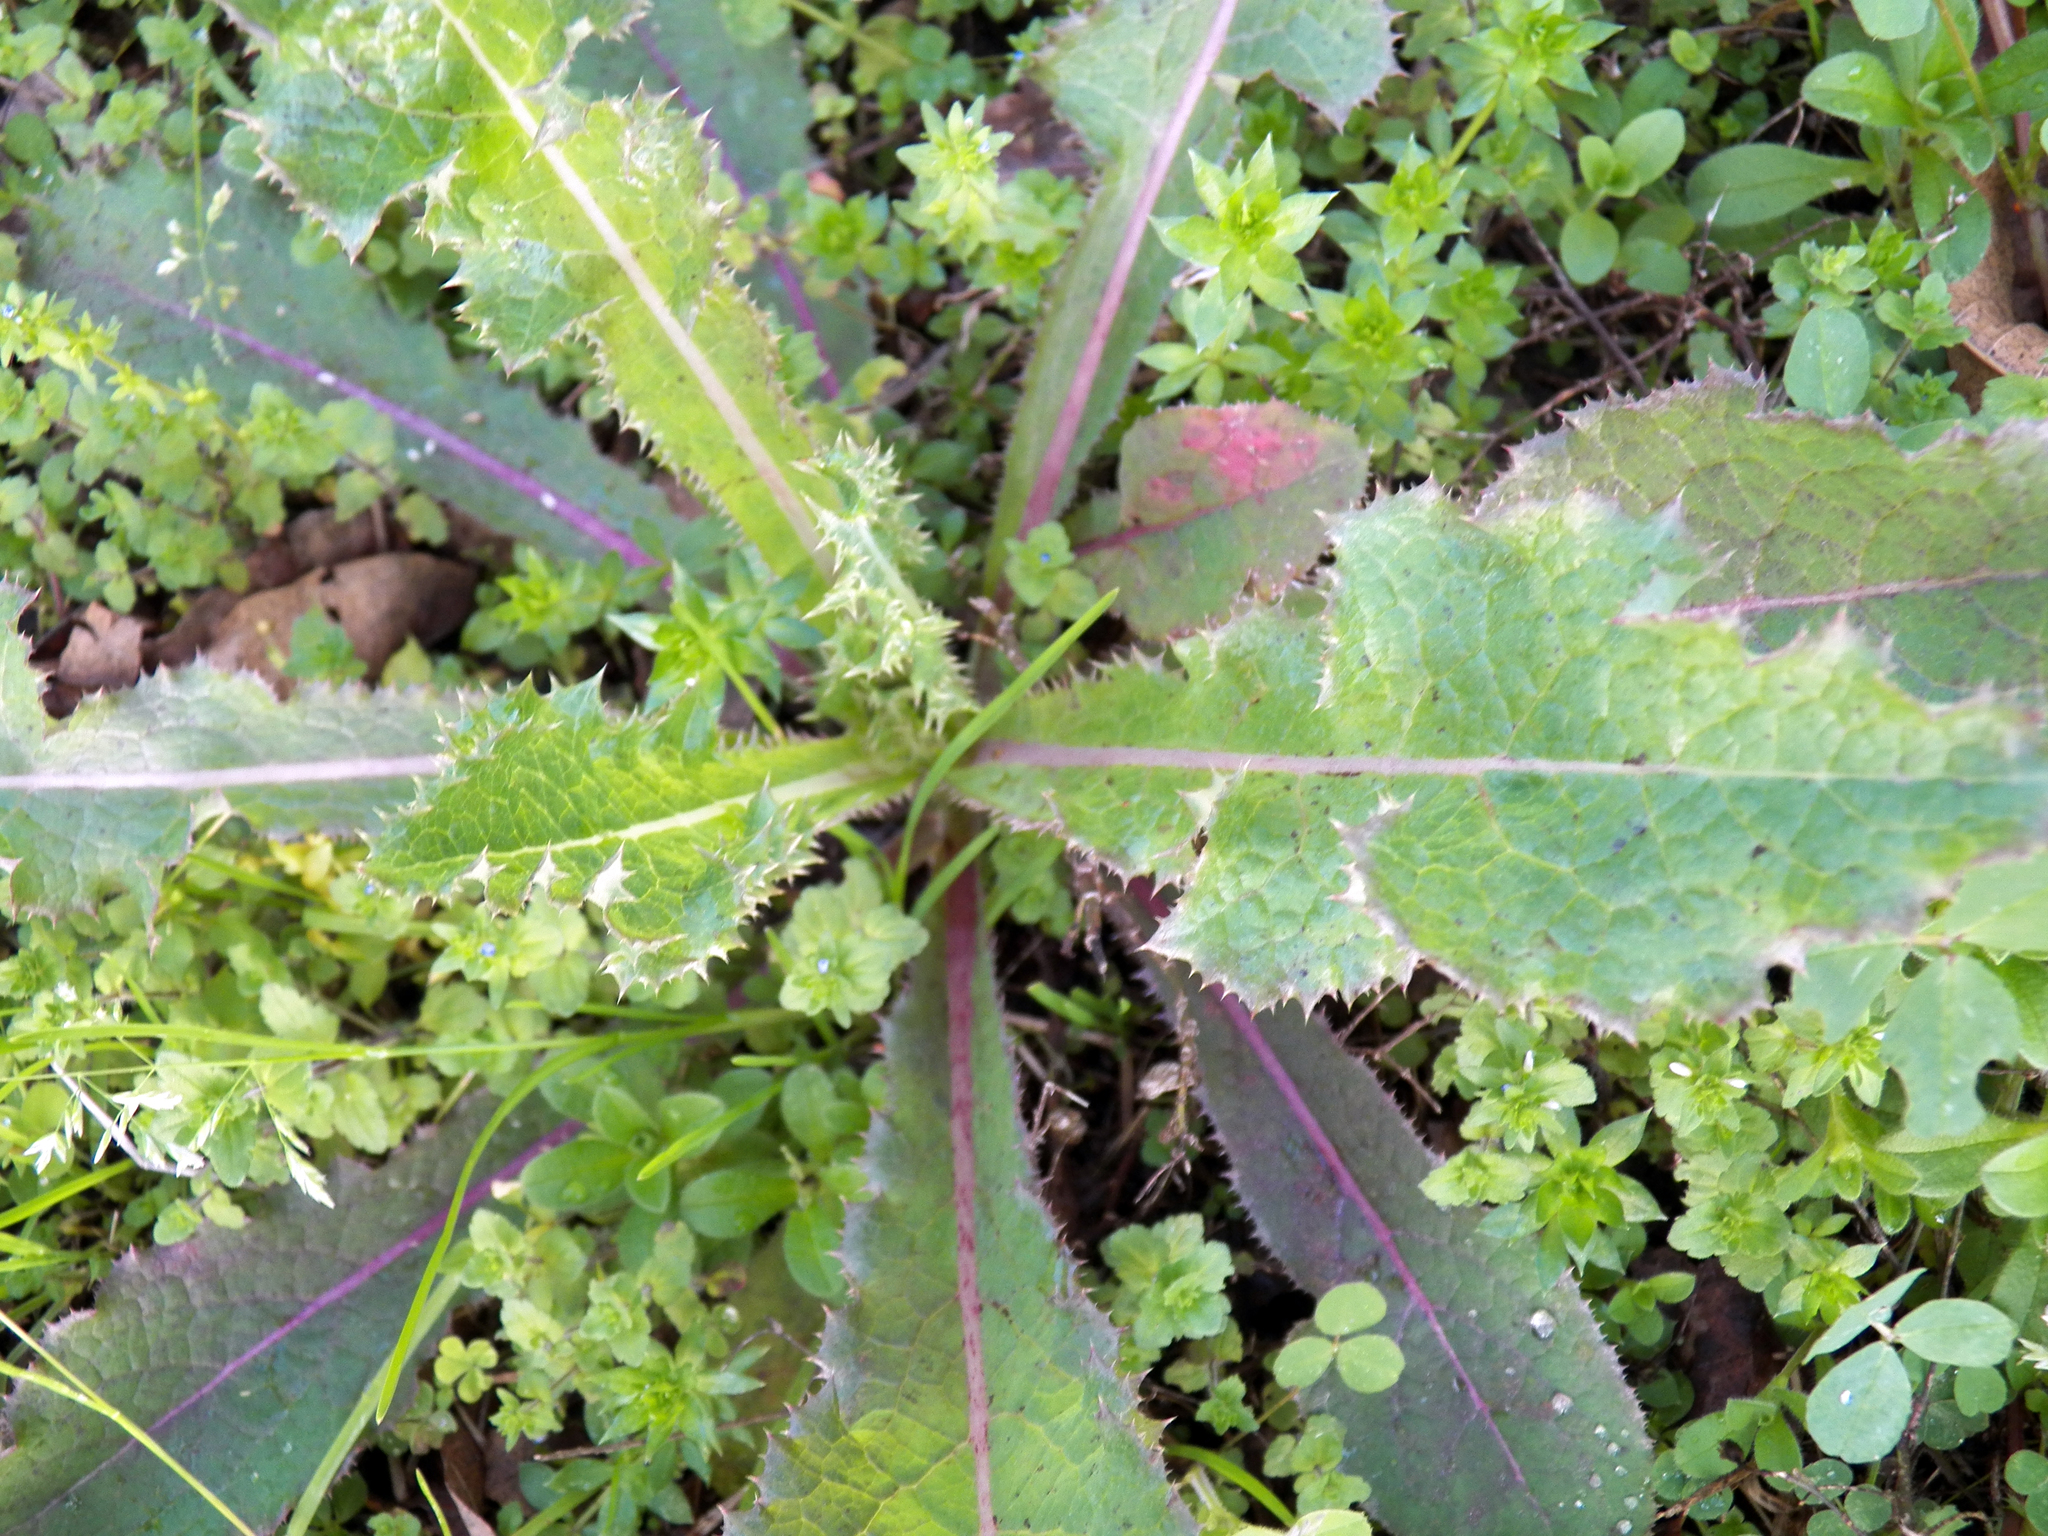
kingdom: Plantae
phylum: Tracheophyta
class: Magnoliopsida
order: Asterales
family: Asteraceae
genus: Sonchus
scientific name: Sonchus asper
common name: Prickly sow-thistle
